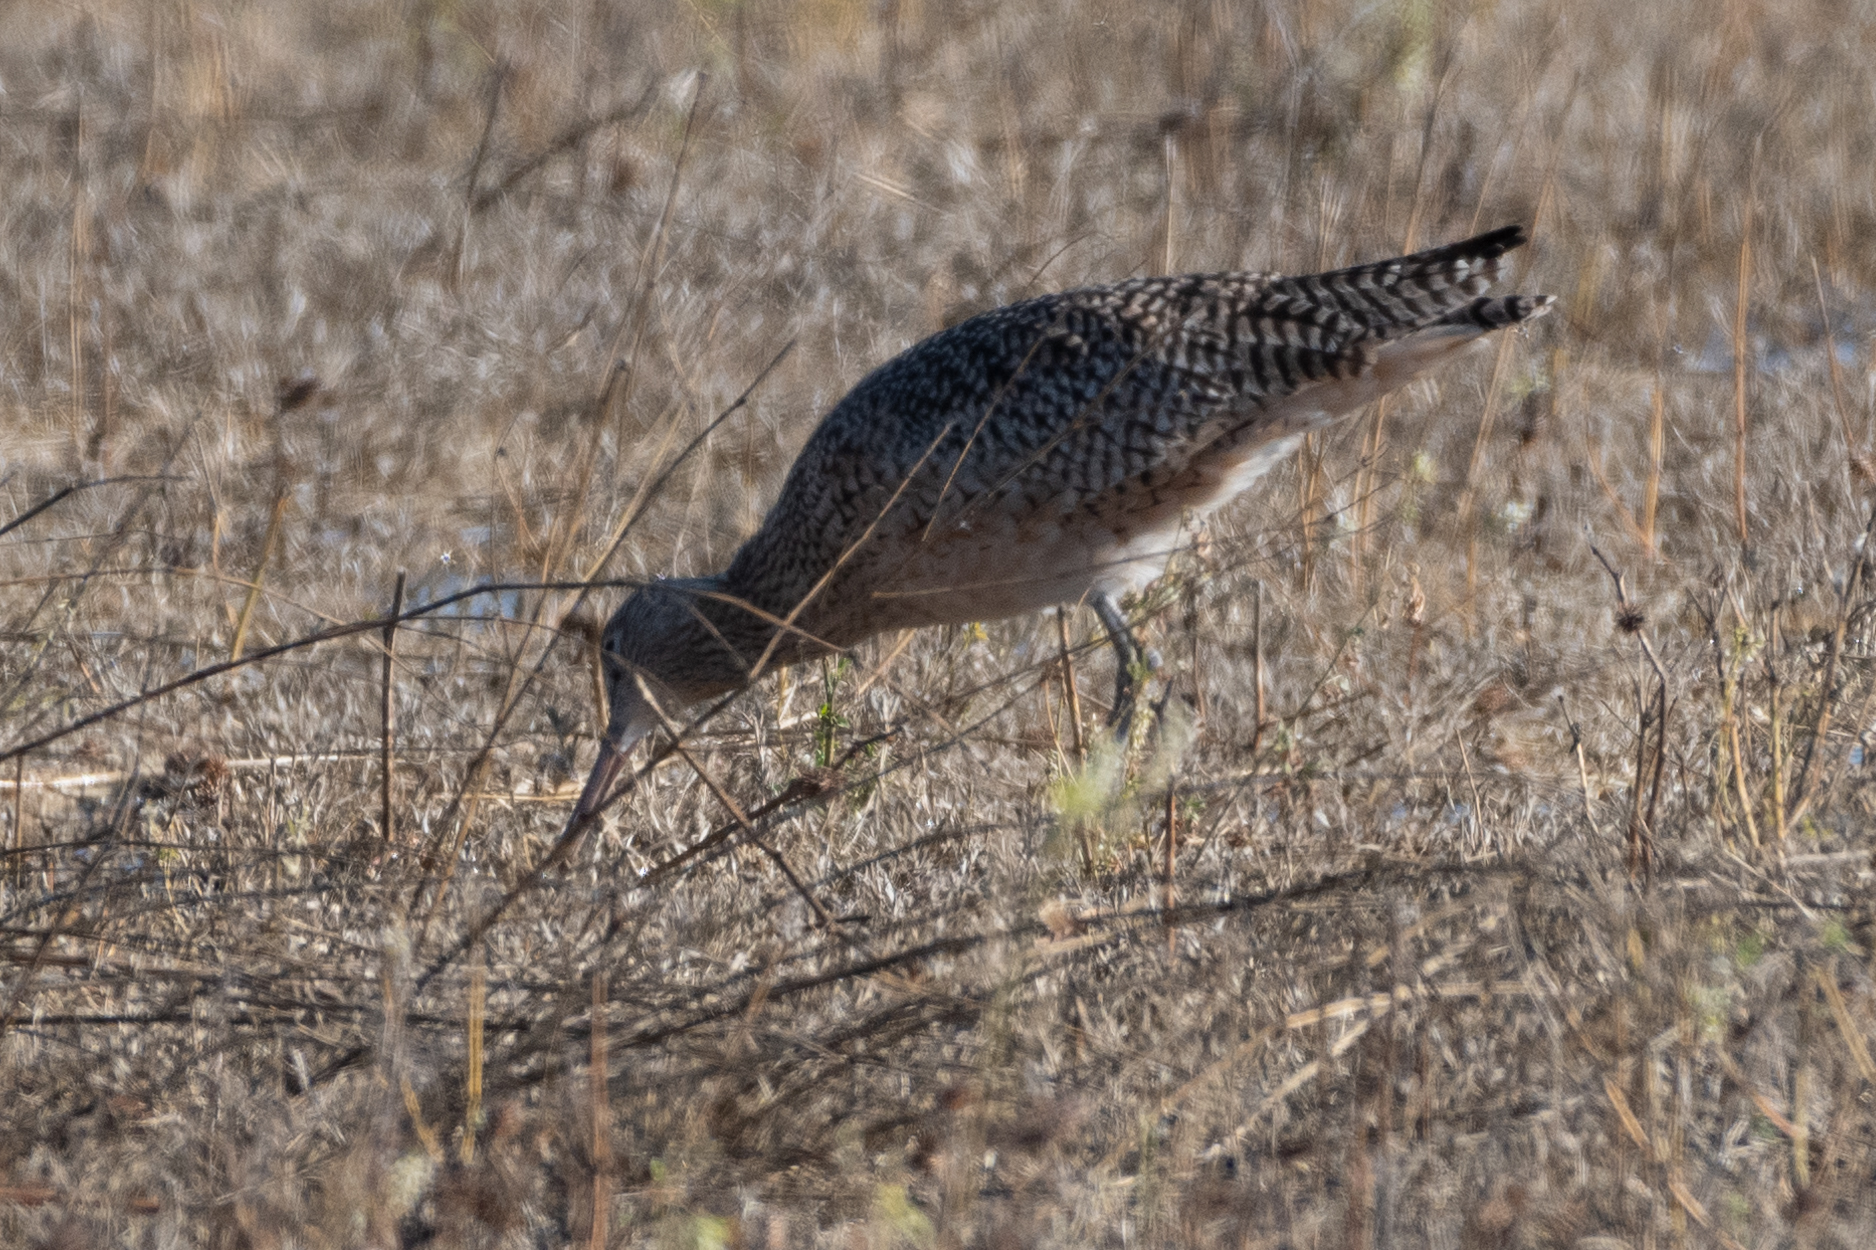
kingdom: Animalia
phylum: Chordata
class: Aves
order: Charadriiformes
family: Scolopacidae
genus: Numenius
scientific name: Numenius americanus
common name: Long-billed curlew
